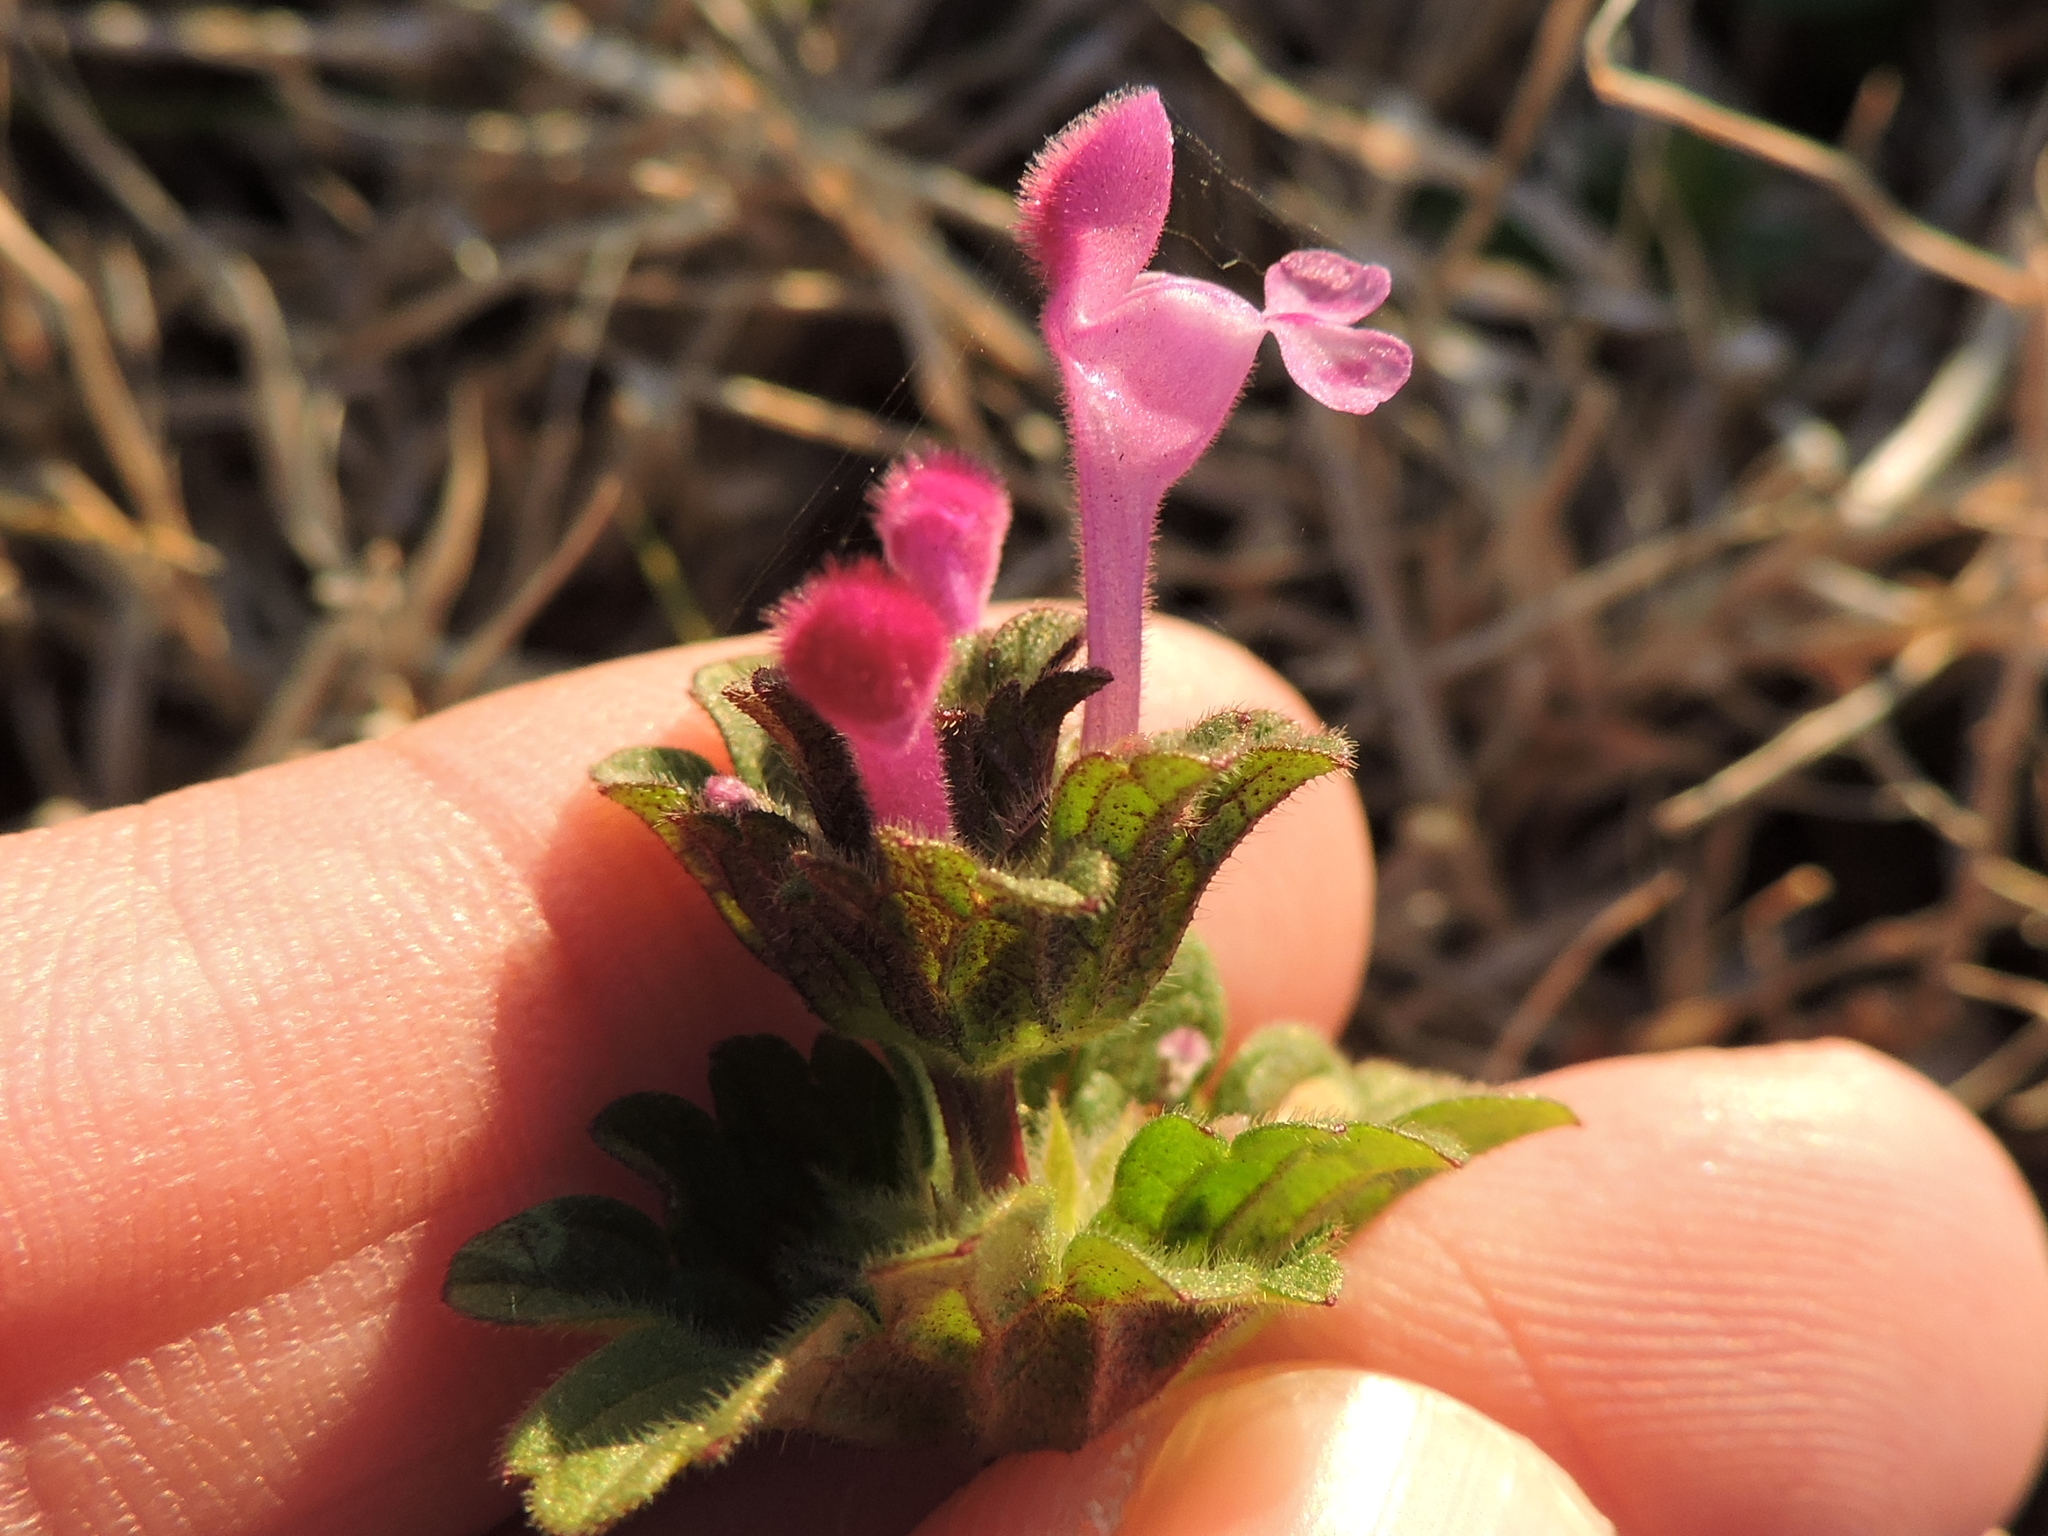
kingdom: Plantae
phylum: Tracheophyta
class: Magnoliopsida
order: Lamiales
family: Lamiaceae
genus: Lamium
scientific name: Lamium amplexicaule
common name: Henbit dead-nettle
